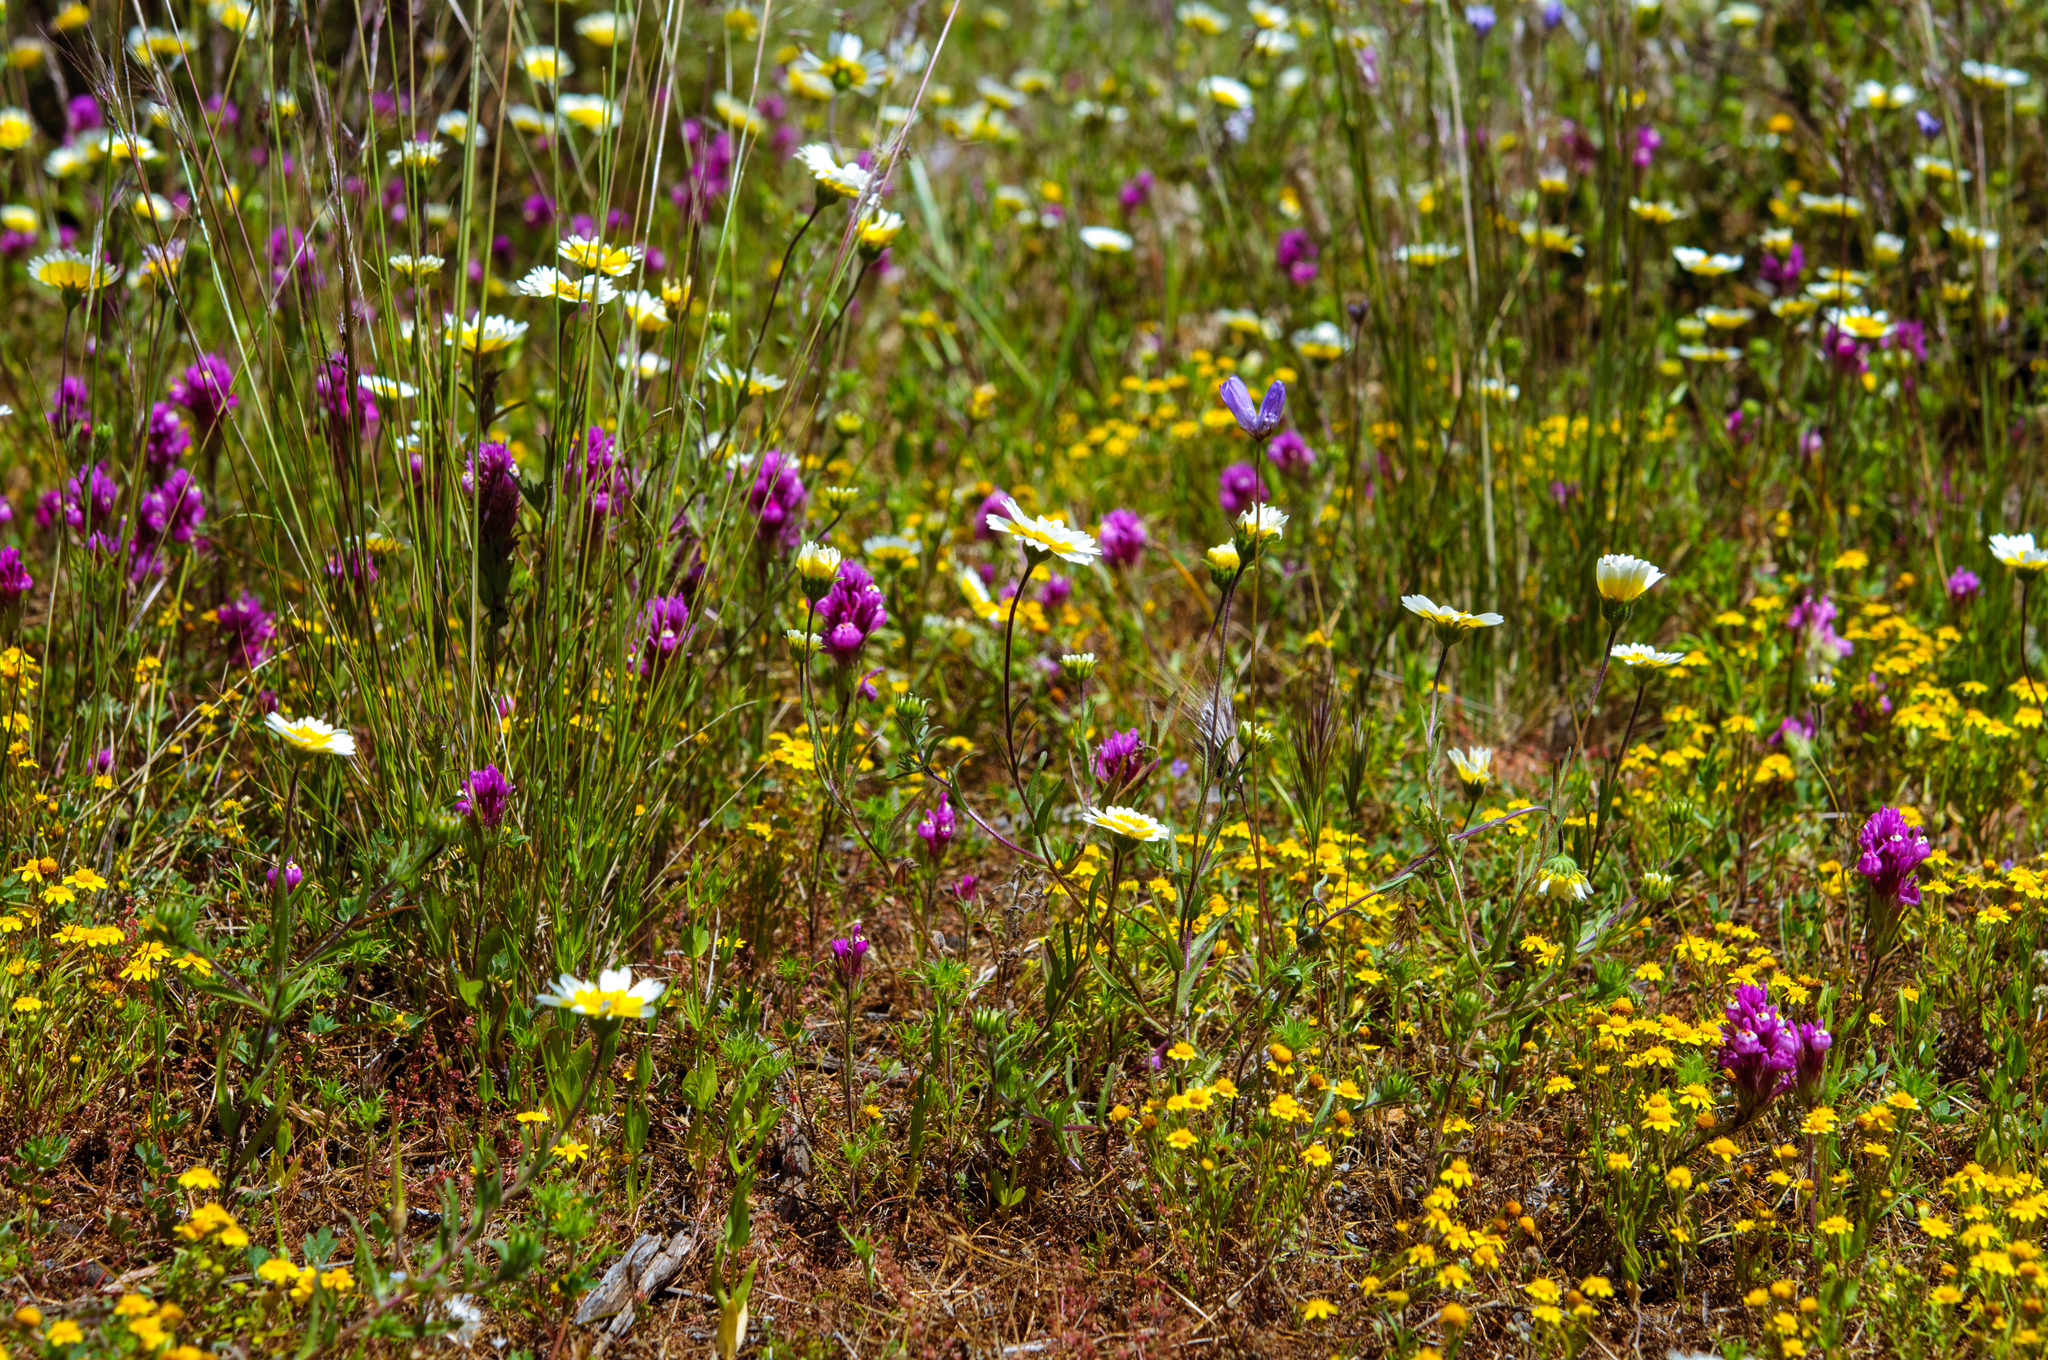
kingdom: Plantae
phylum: Tracheophyta
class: Magnoliopsida
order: Lamiales
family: Orobanchaceae
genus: Castilleja
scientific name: Castilleja exserta
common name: Purple owl-clover
